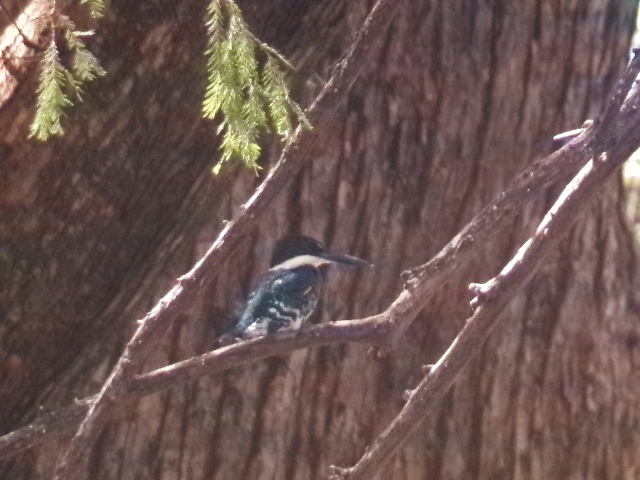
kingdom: Animalia
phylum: Chordata
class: Aves
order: Coraciiformes
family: Alcedinidae
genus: Chloroceryle
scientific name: Chloroceryle americana
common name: Green kingfisher
